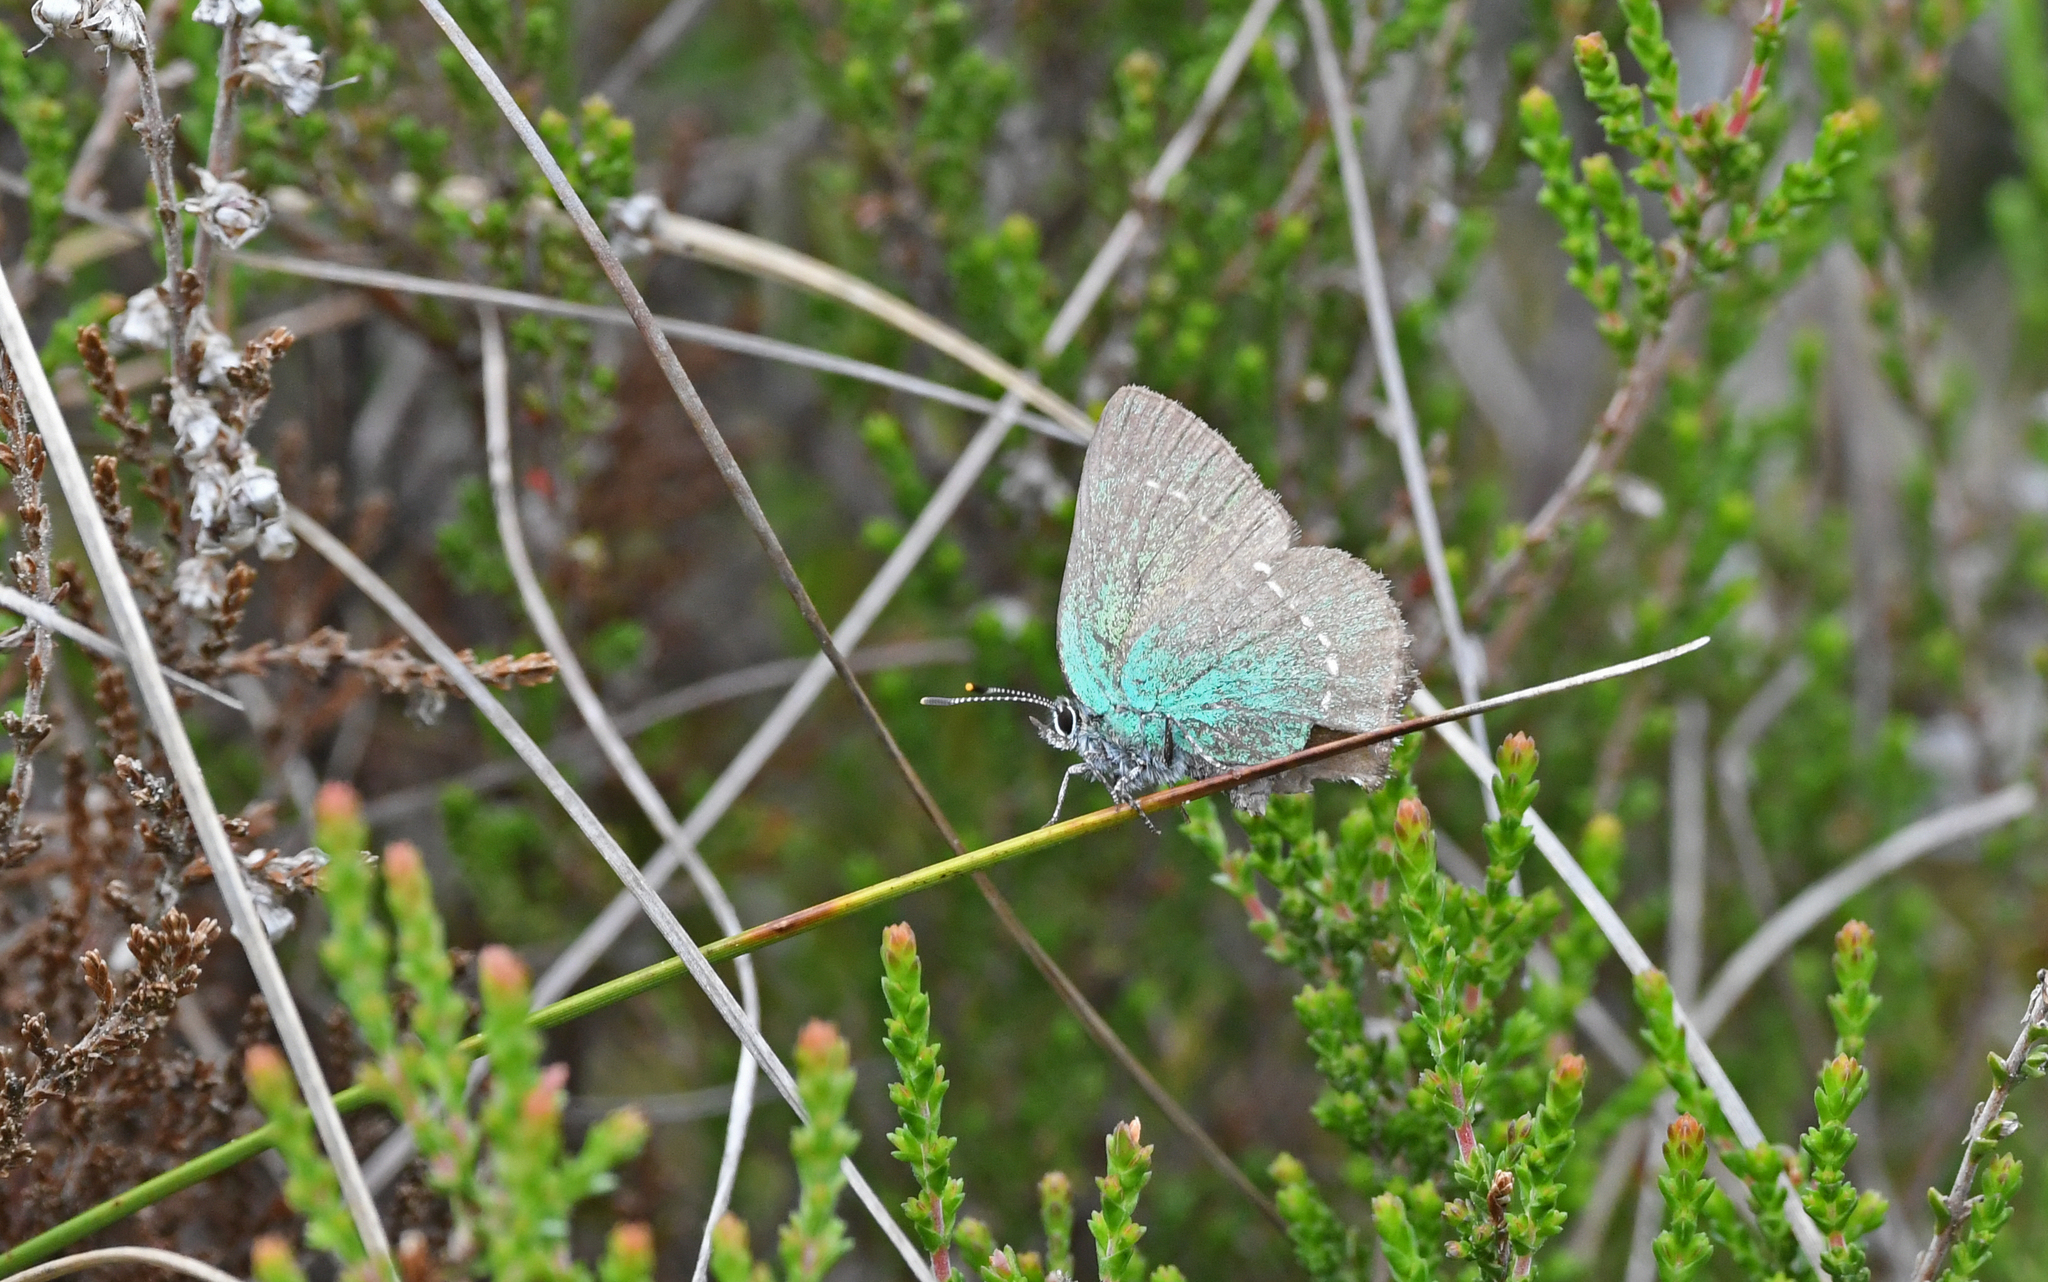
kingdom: Animalia
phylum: Arthropoda
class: Insecta
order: Lepidoptera
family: Lycaenidae
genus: Callophrys
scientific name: Callophrys rubi
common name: Green hairstreak
